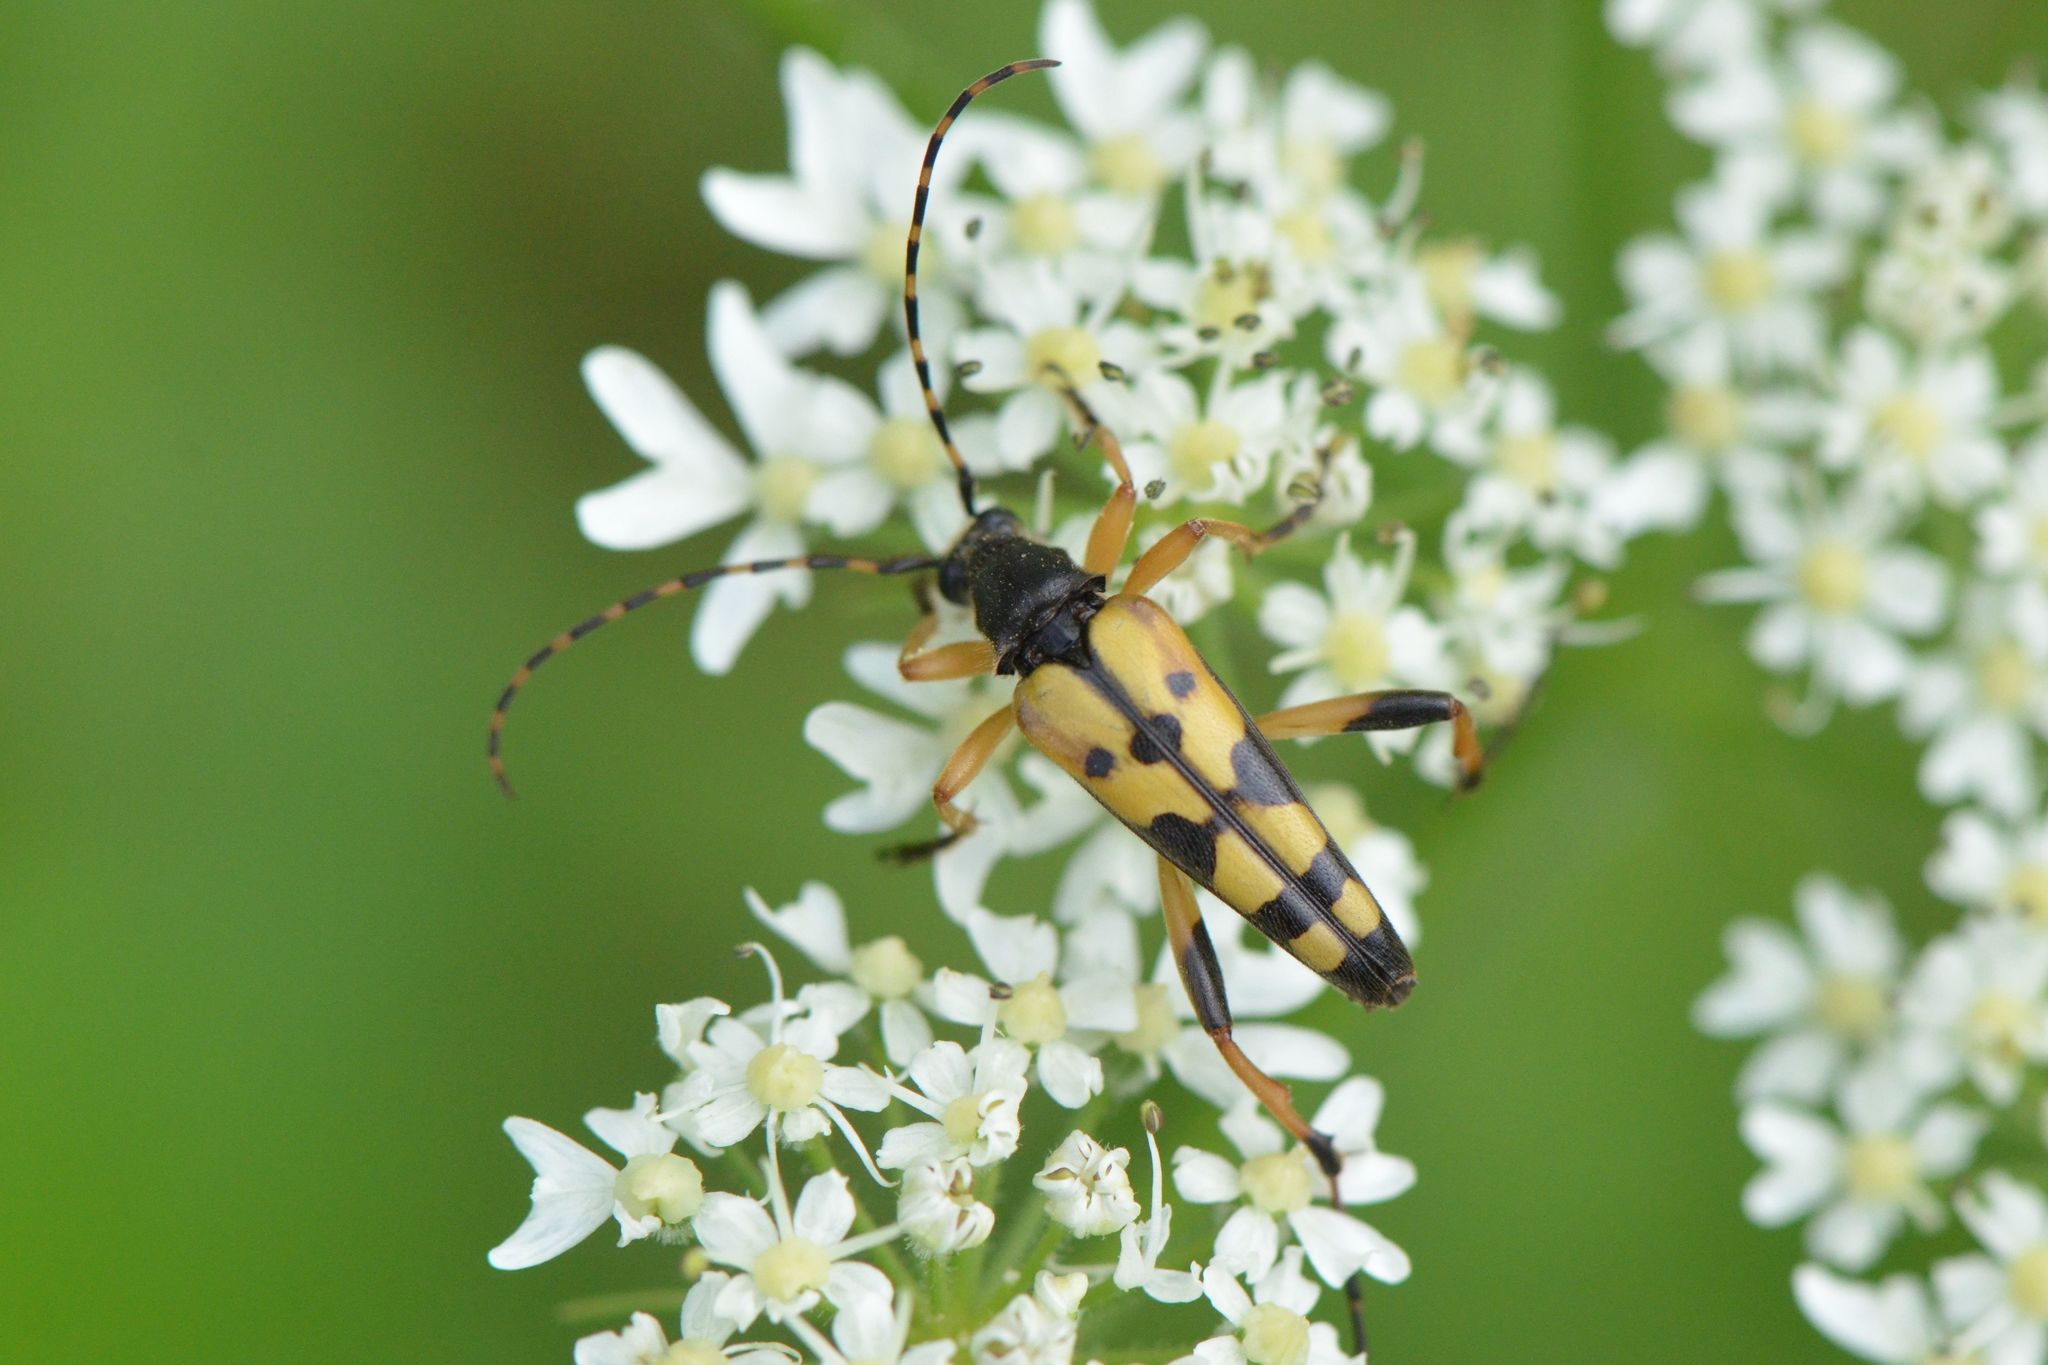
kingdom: Animalia
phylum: Arthropoda
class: Insecta
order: Coleoptera
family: Cerambycidae
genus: Rutpela
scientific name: Rutpela maculata
